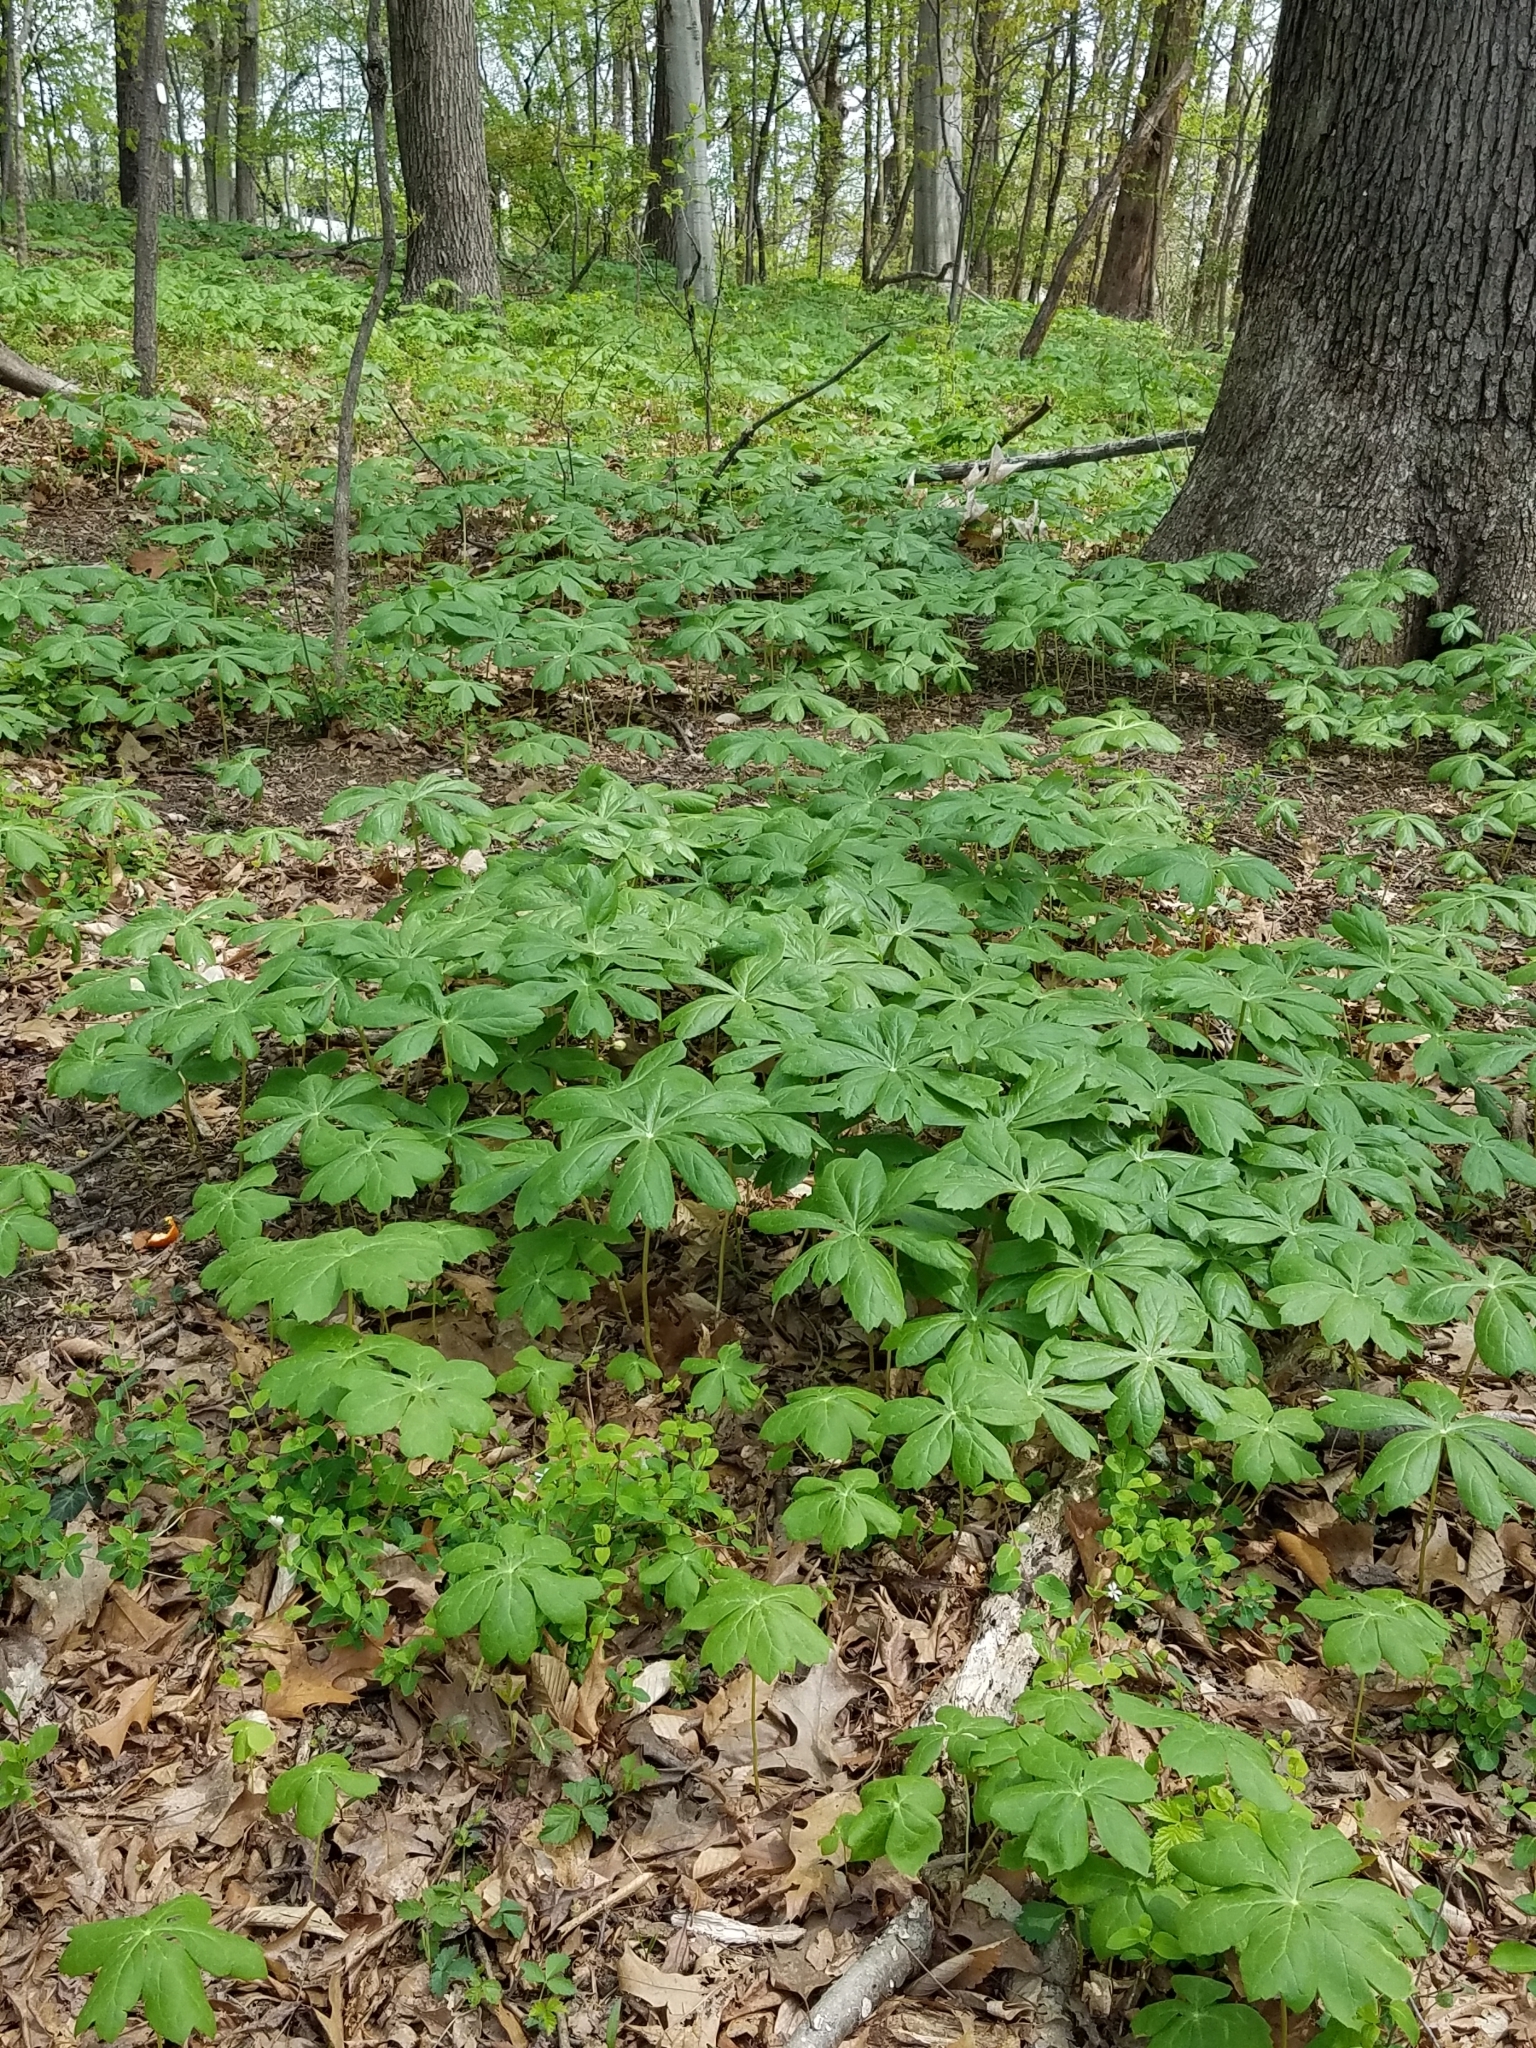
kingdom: Plantae
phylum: Tracheophyta
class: Magnoliopsida
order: Ranunculales
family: Berberidaceae
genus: Podophyllum
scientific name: Podophyllum peltatum
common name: Wild mandrake
